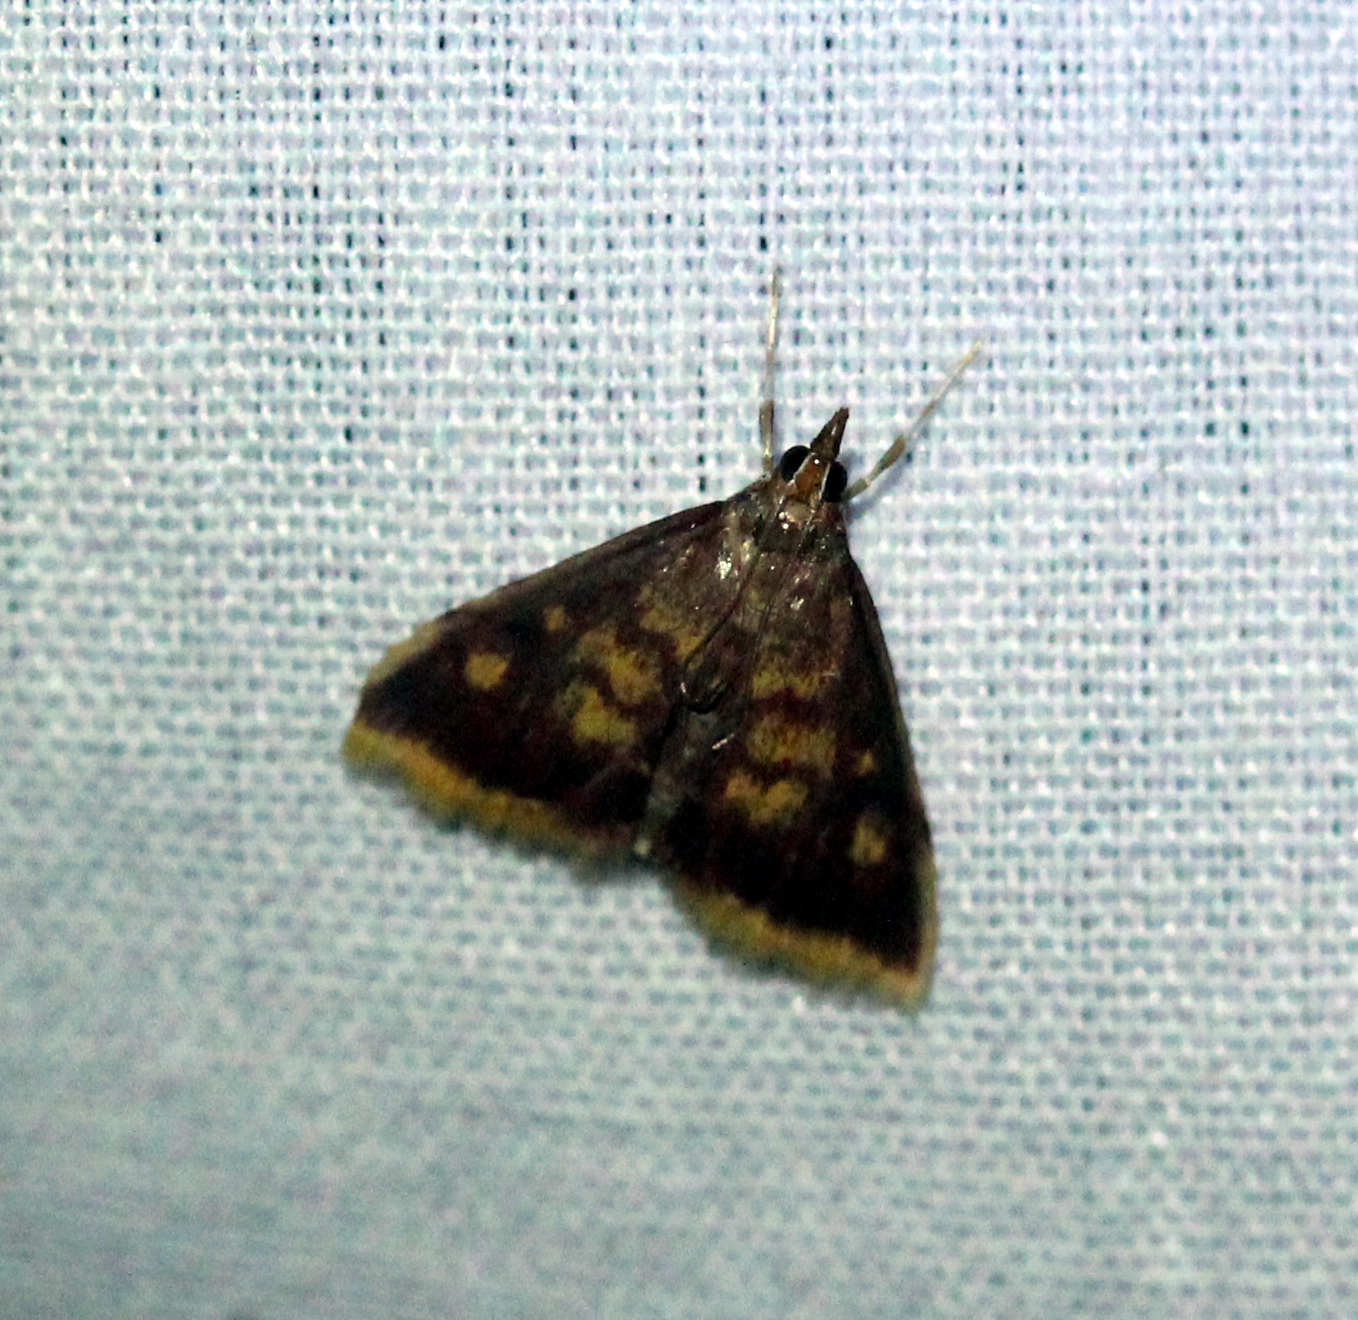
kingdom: Animalia
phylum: Arthropoda
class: Insecta
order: Lepidoptera
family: Crambidae
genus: Pyrausta
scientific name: Pyrausta acrionalis
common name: Mint-loving pyrausta moth
